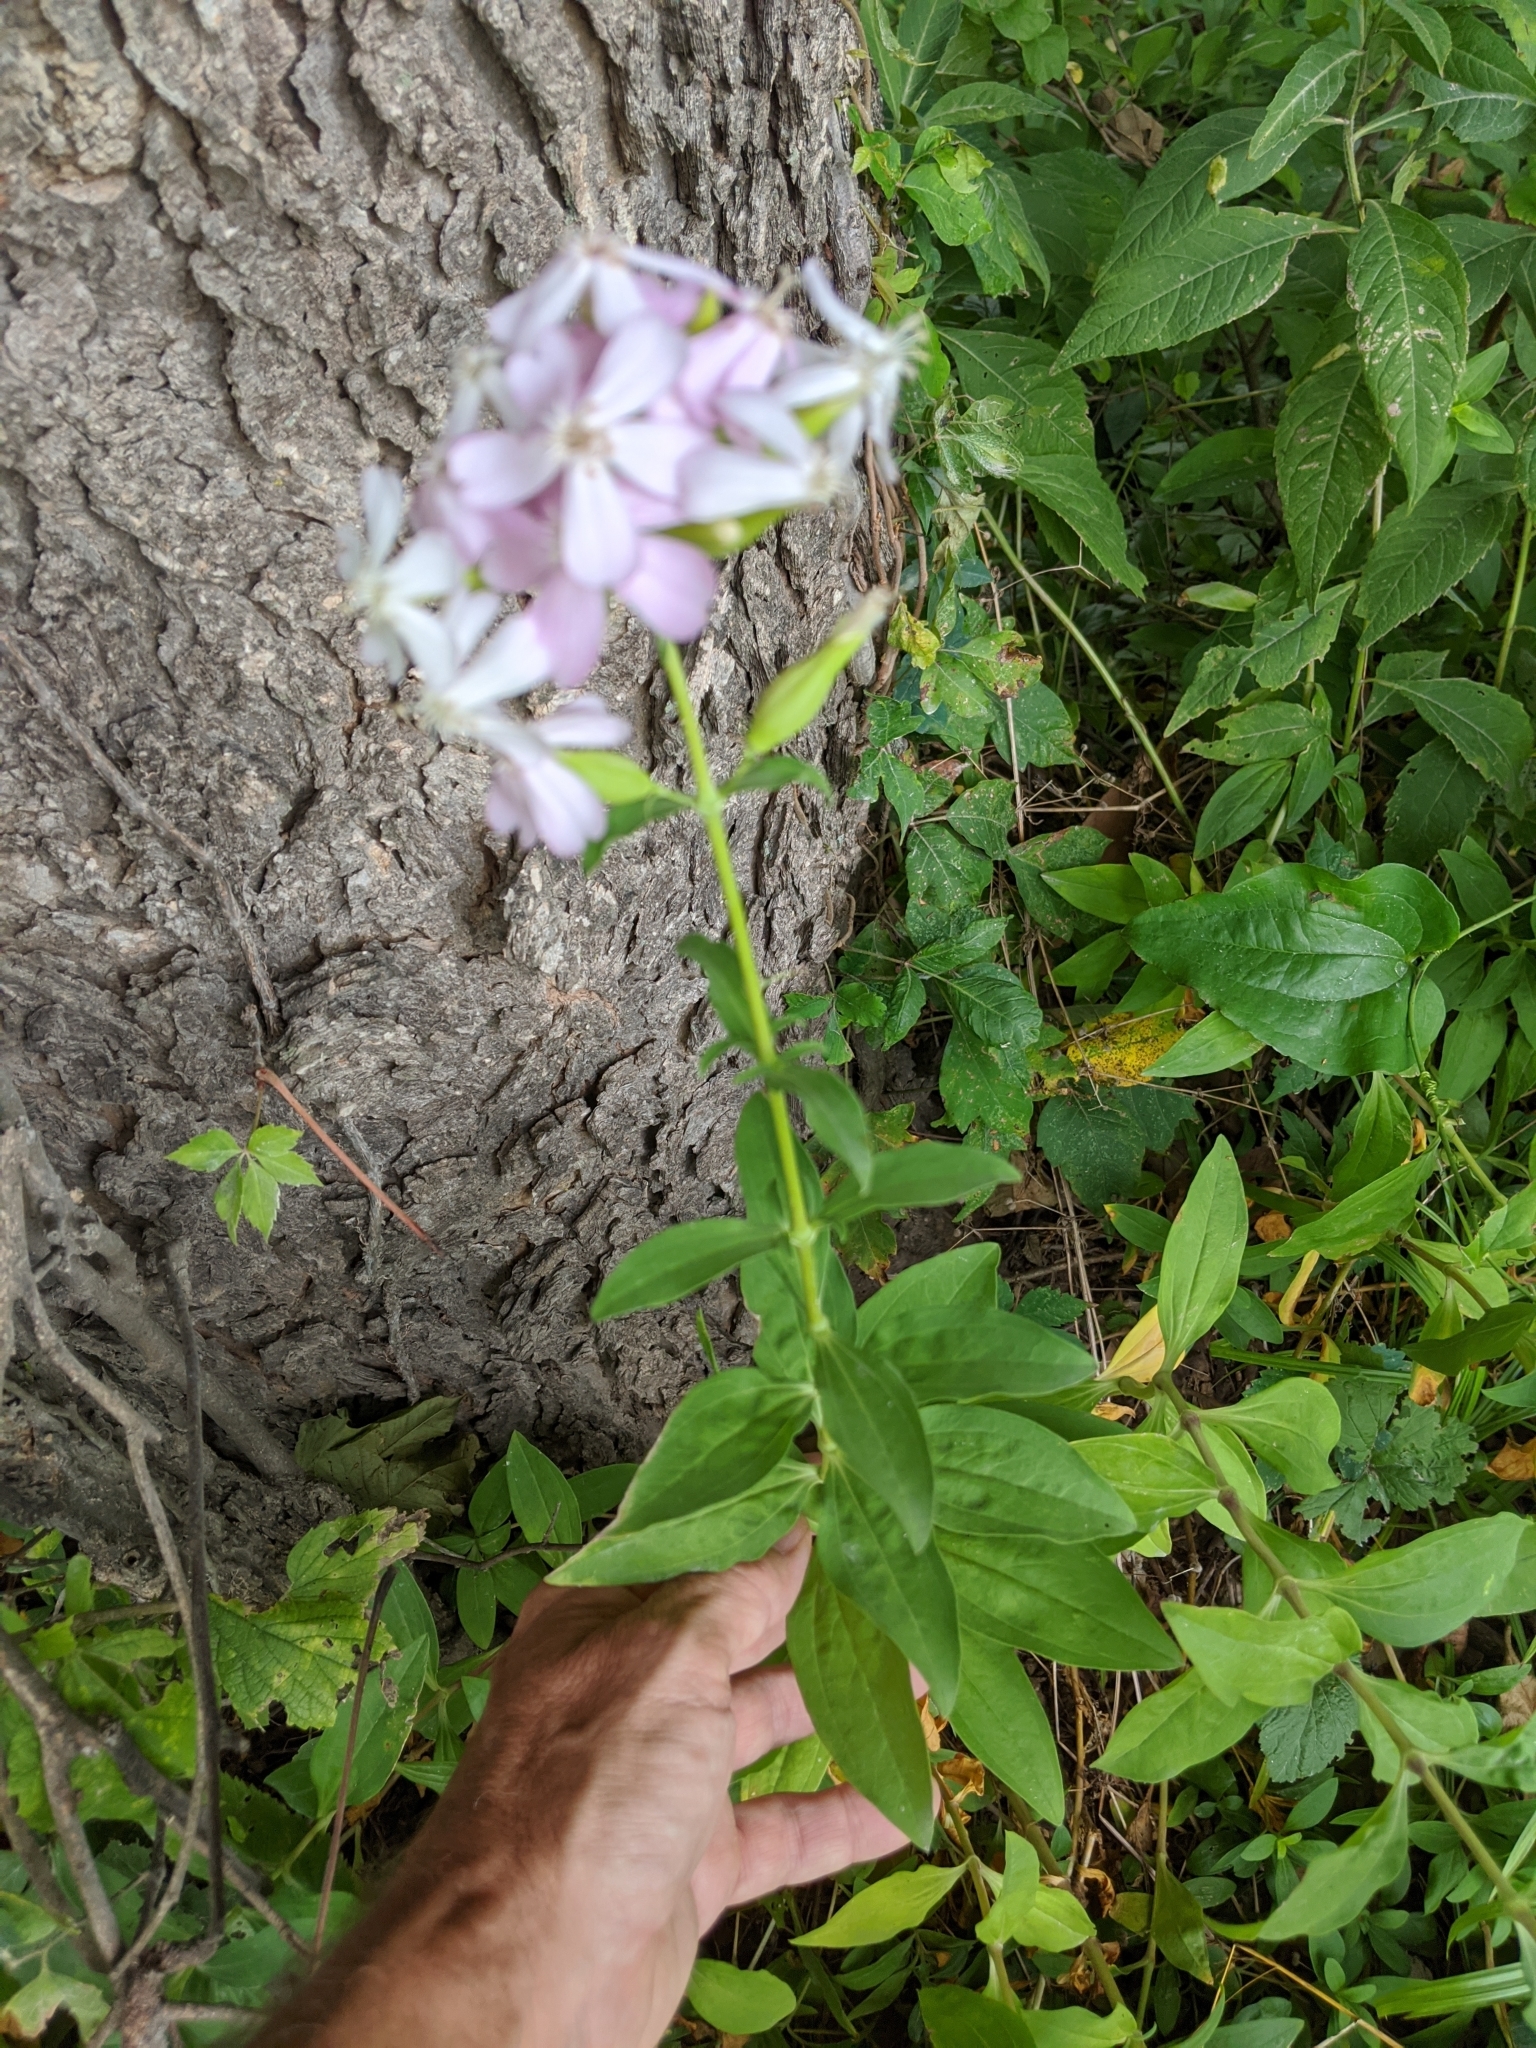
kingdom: Plantae
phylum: Tracheophyta
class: Magnoliopsida
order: Caryophyllales
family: Caryophyllaceae
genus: Saponaria
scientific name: Saponaria officinalis
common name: Soapwort
